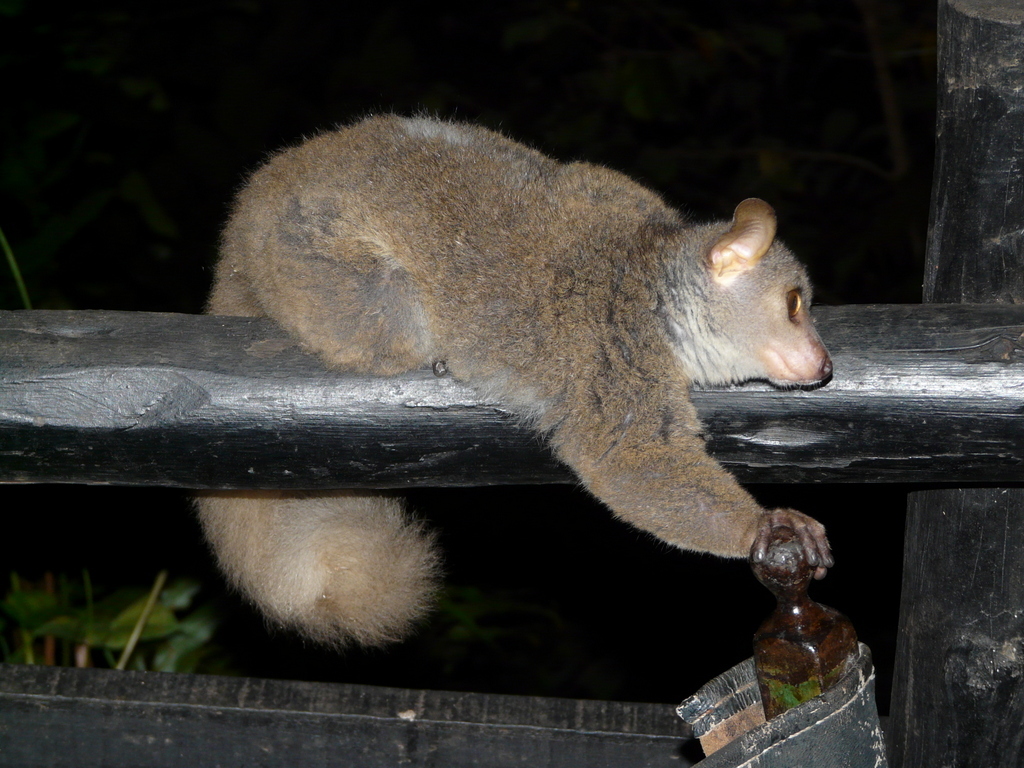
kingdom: Animalia
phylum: Chordata
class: Mammalia
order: Primates
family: Galagidae
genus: Otolemur
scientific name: Otolemur garnettii
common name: Northern greater galago
